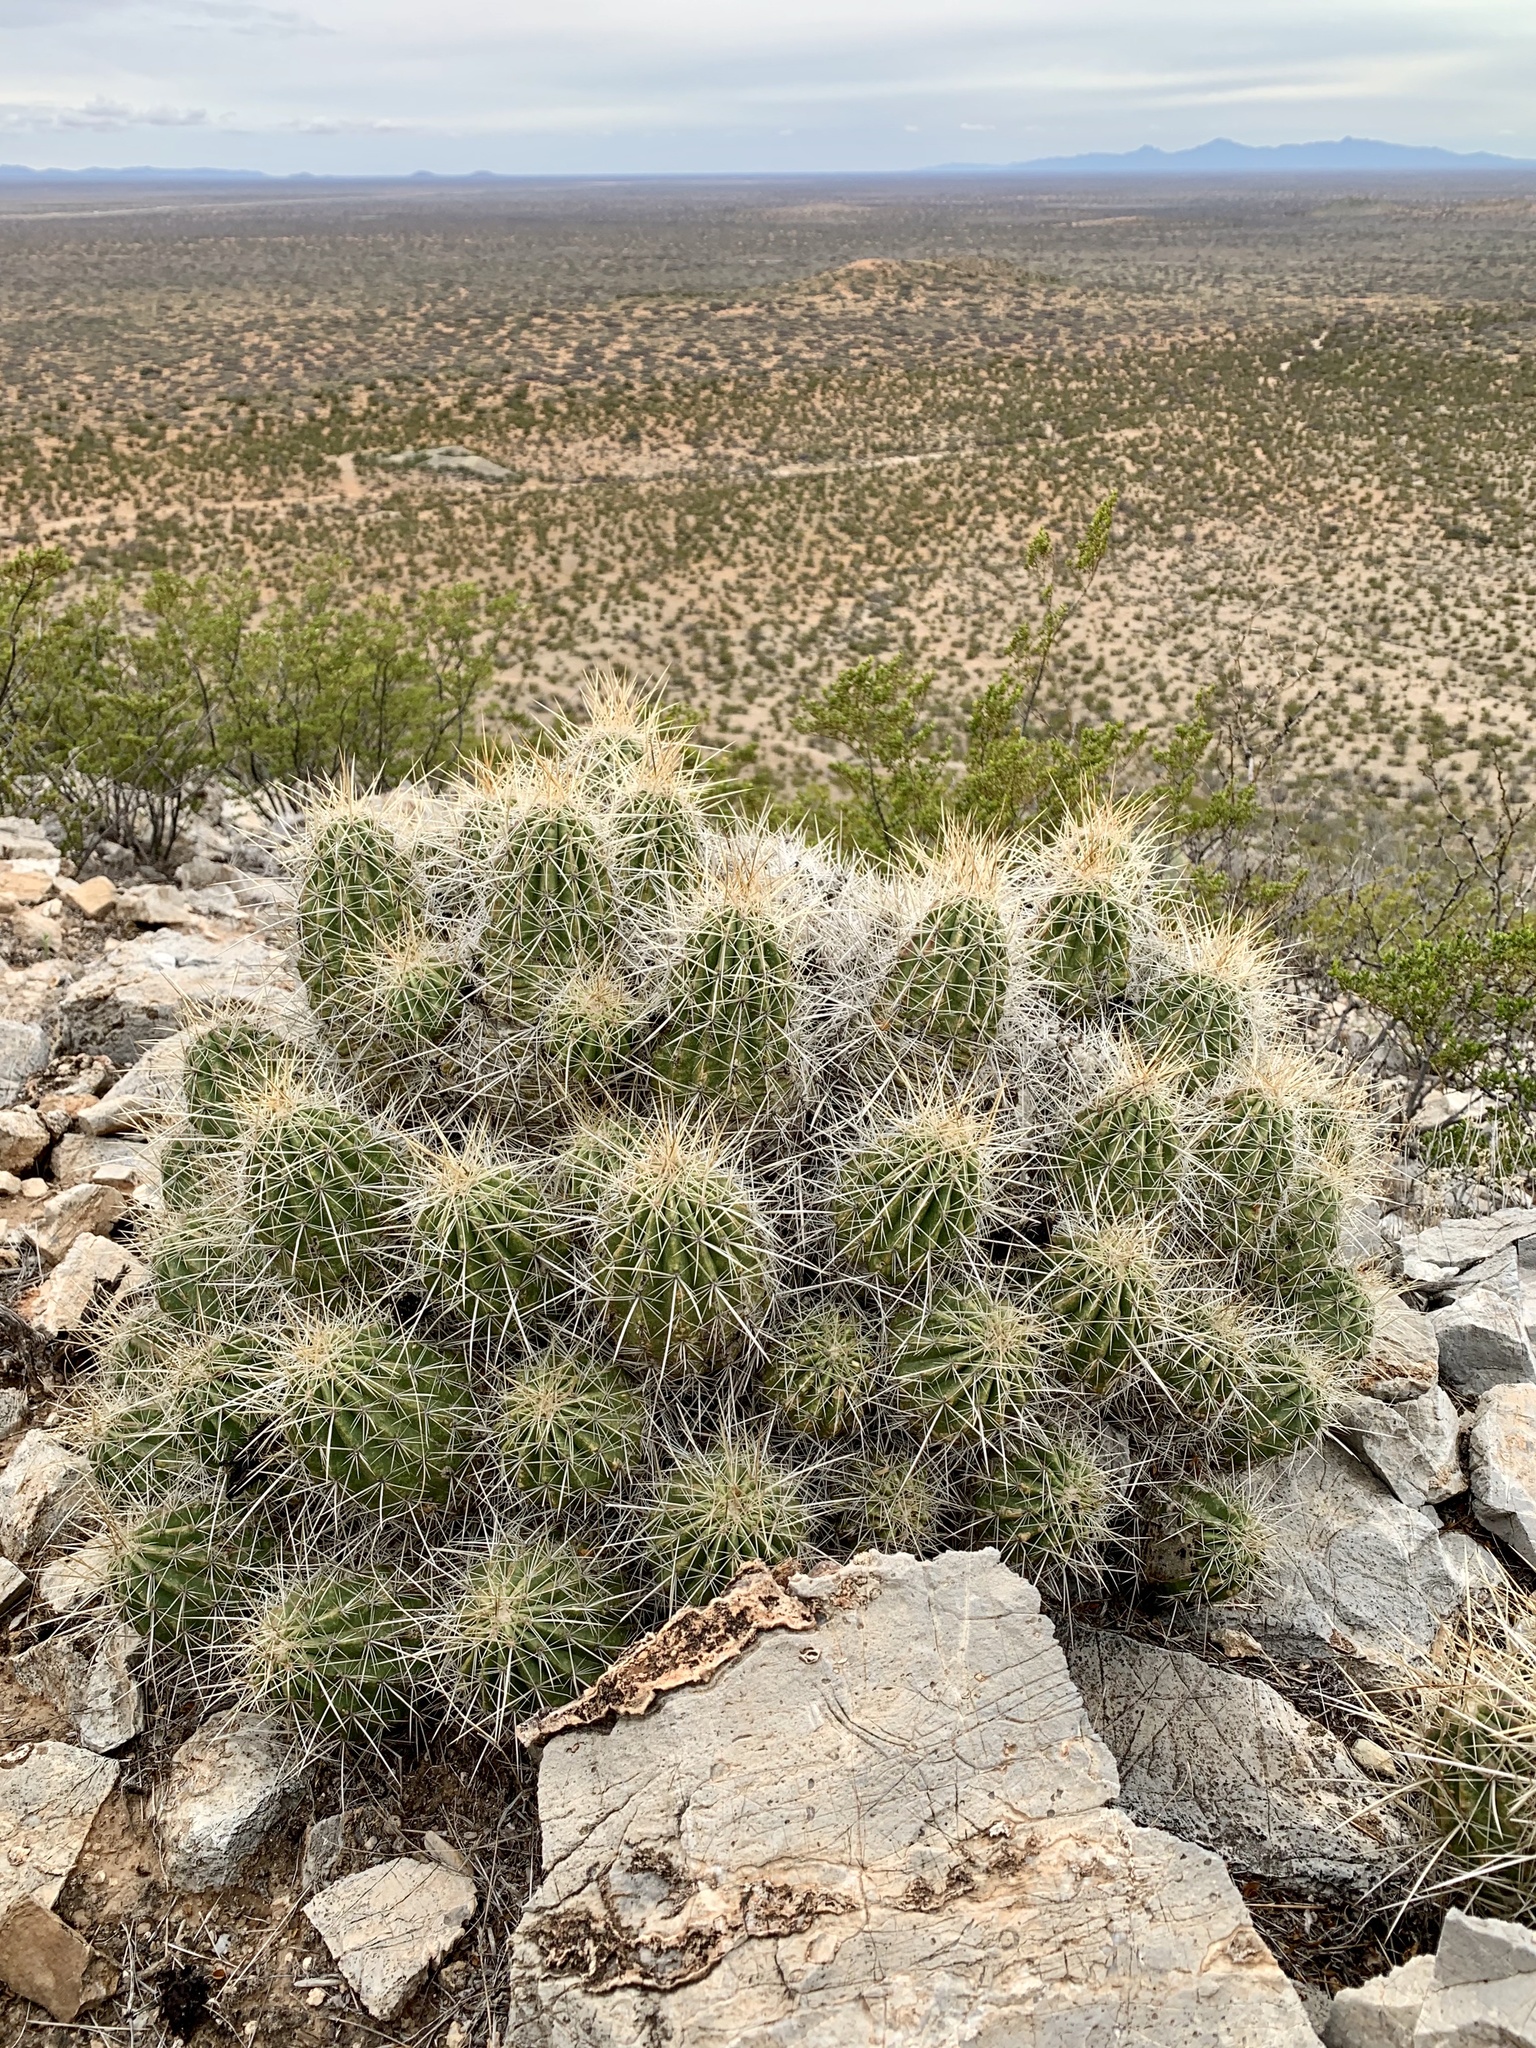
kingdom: Plantae
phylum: Tracheophyta
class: Magnoliopsida
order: Caryophyllales
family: Cactaceae
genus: Echinocereus
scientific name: Echinocereus stramineus
